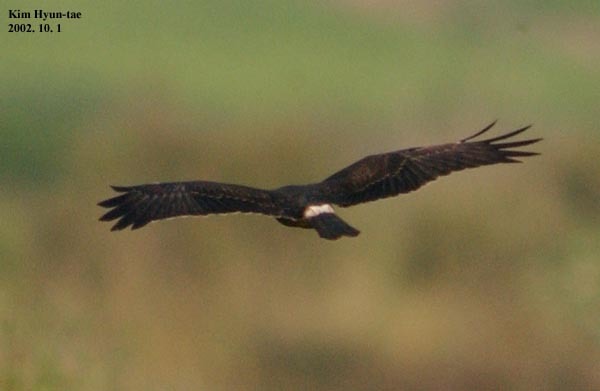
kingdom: Animalia
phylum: Chordata
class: Aves
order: Accipitriformes
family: Accipitridae
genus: Circus
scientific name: Circus melanoleucos
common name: Pied harrier
